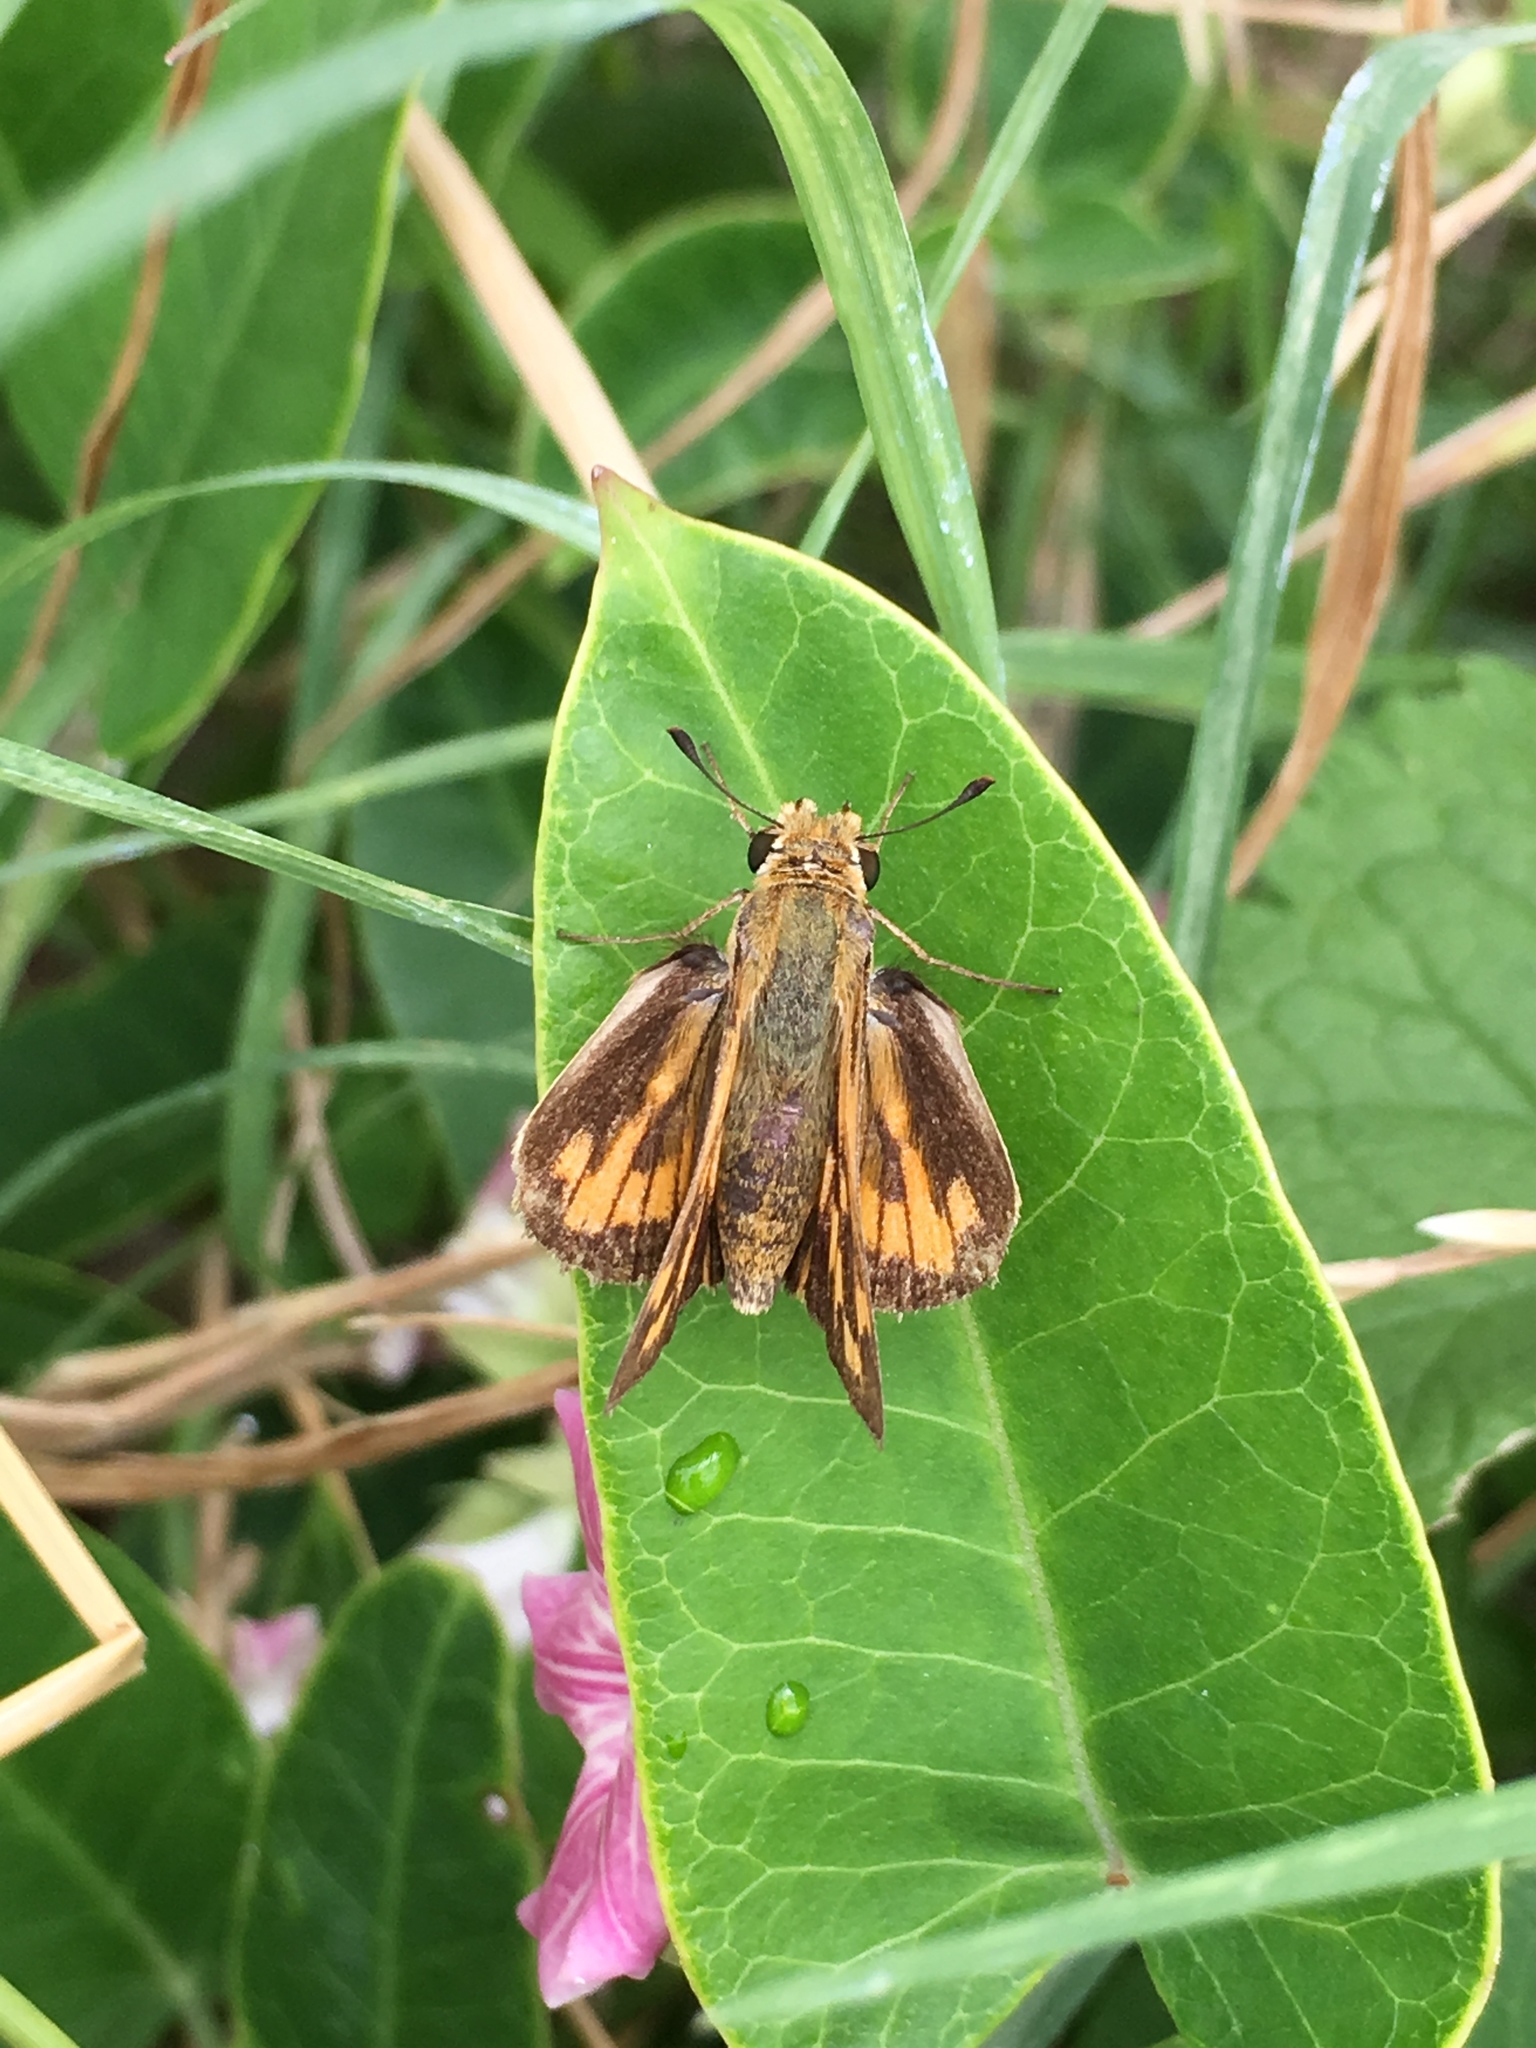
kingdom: Animalia
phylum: Arthropoda
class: Insecta
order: Lepidoptera
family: Hesperiidae
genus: Hylephila
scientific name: Hylephila phyleus
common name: Fiery skipper
